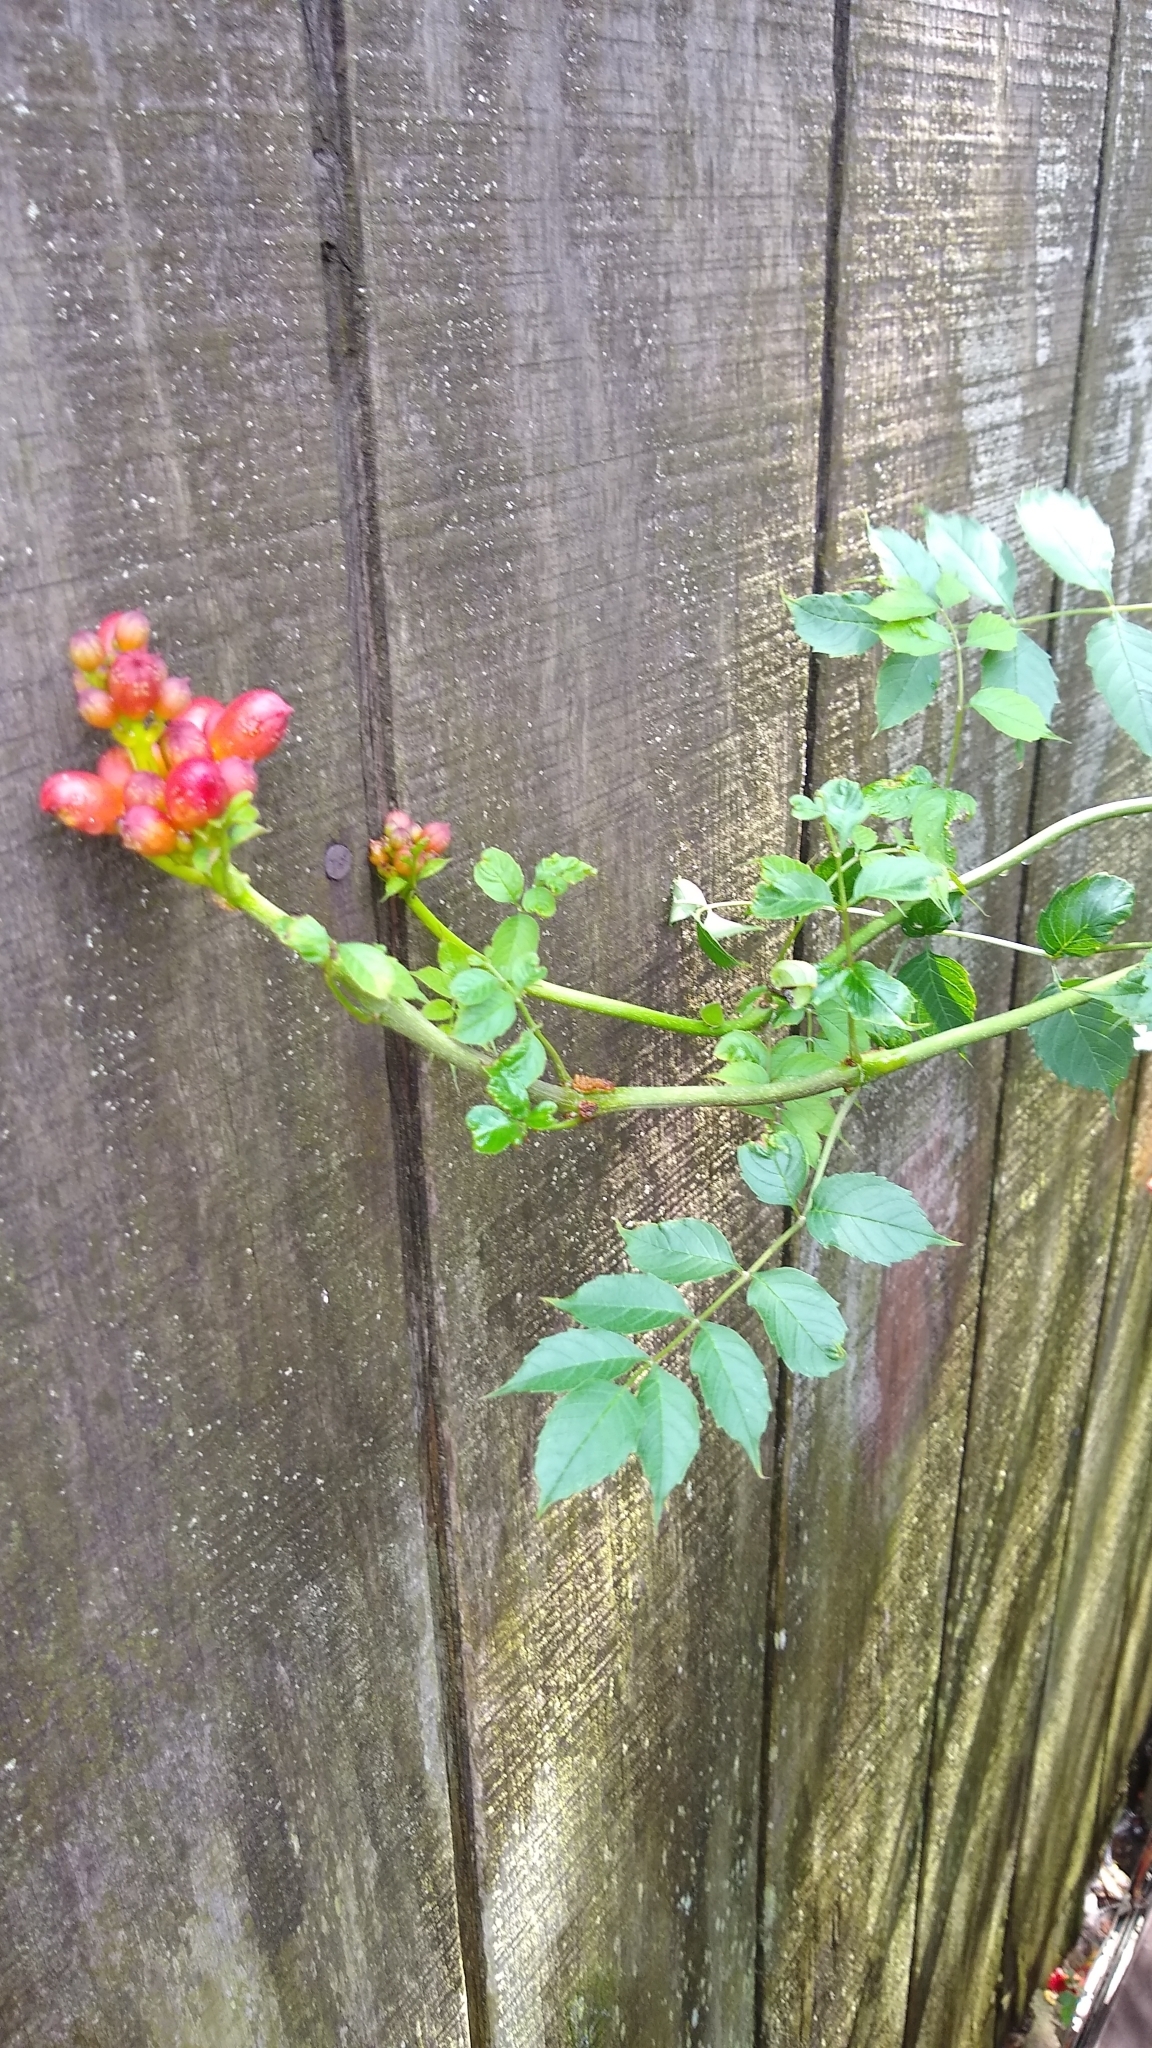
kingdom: Plantae
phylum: Tracheophyta
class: Magnoliopsida
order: Lamiales
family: Bignoniaceae
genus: Campsis
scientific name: Campsis radicans
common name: Trumpet-creeper
